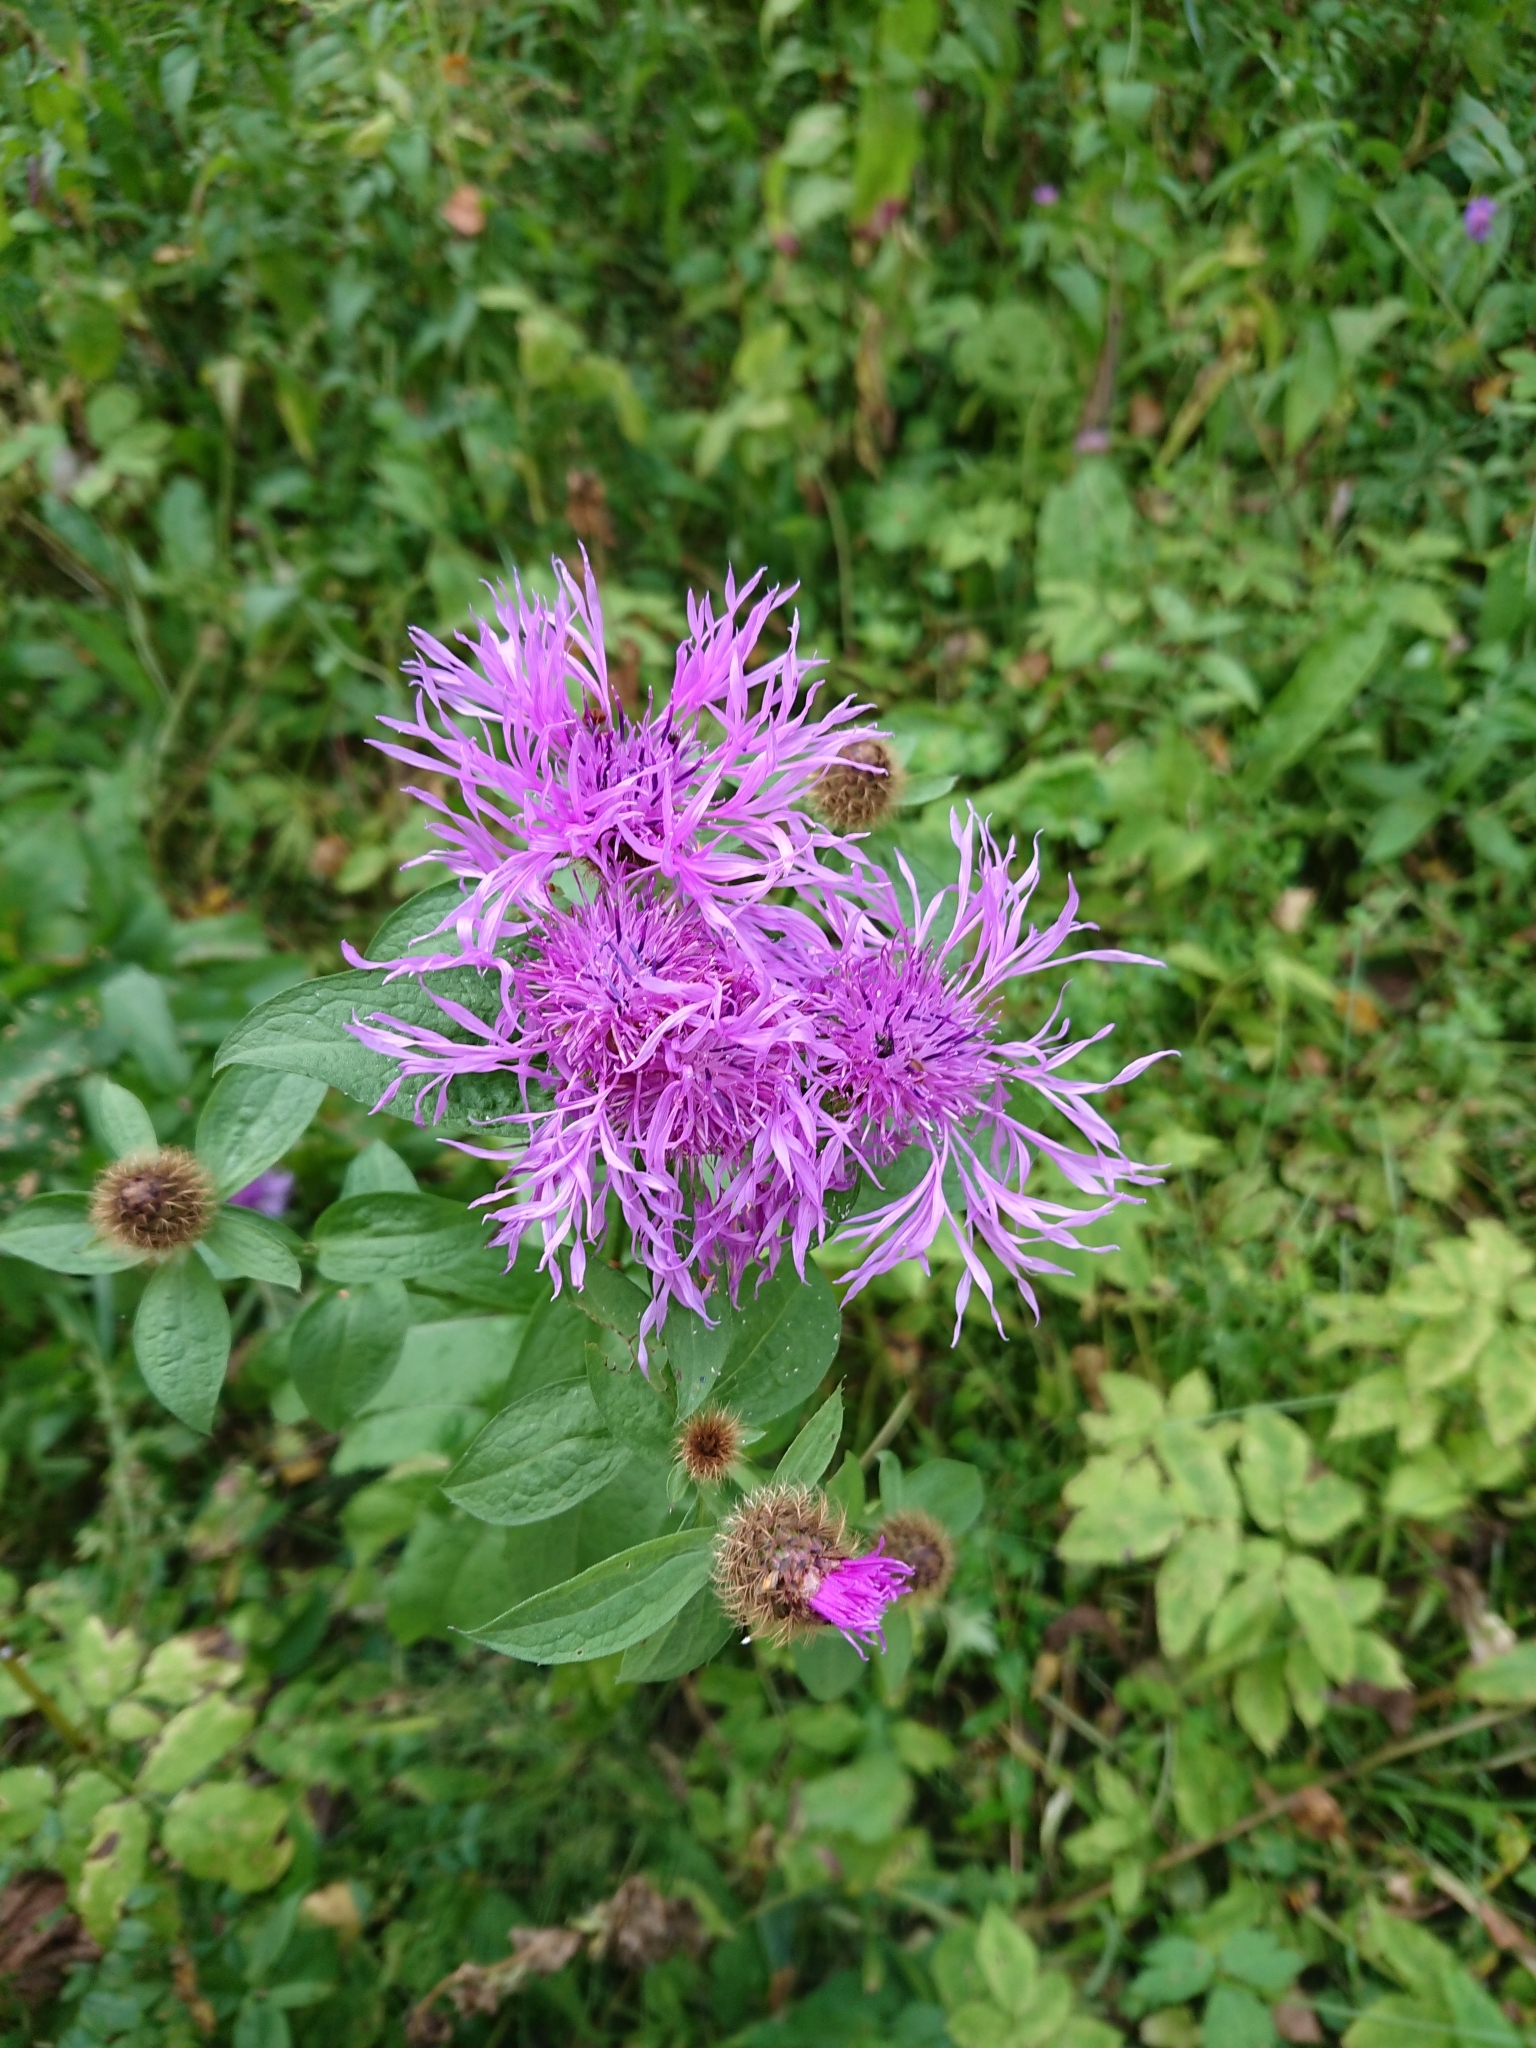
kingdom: Plantae
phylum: Tracheophyta
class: Magnoliopsida
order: Asterales
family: Asteraceae
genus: Centaurea
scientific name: Centaurea phrygia
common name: Wig knapweed
